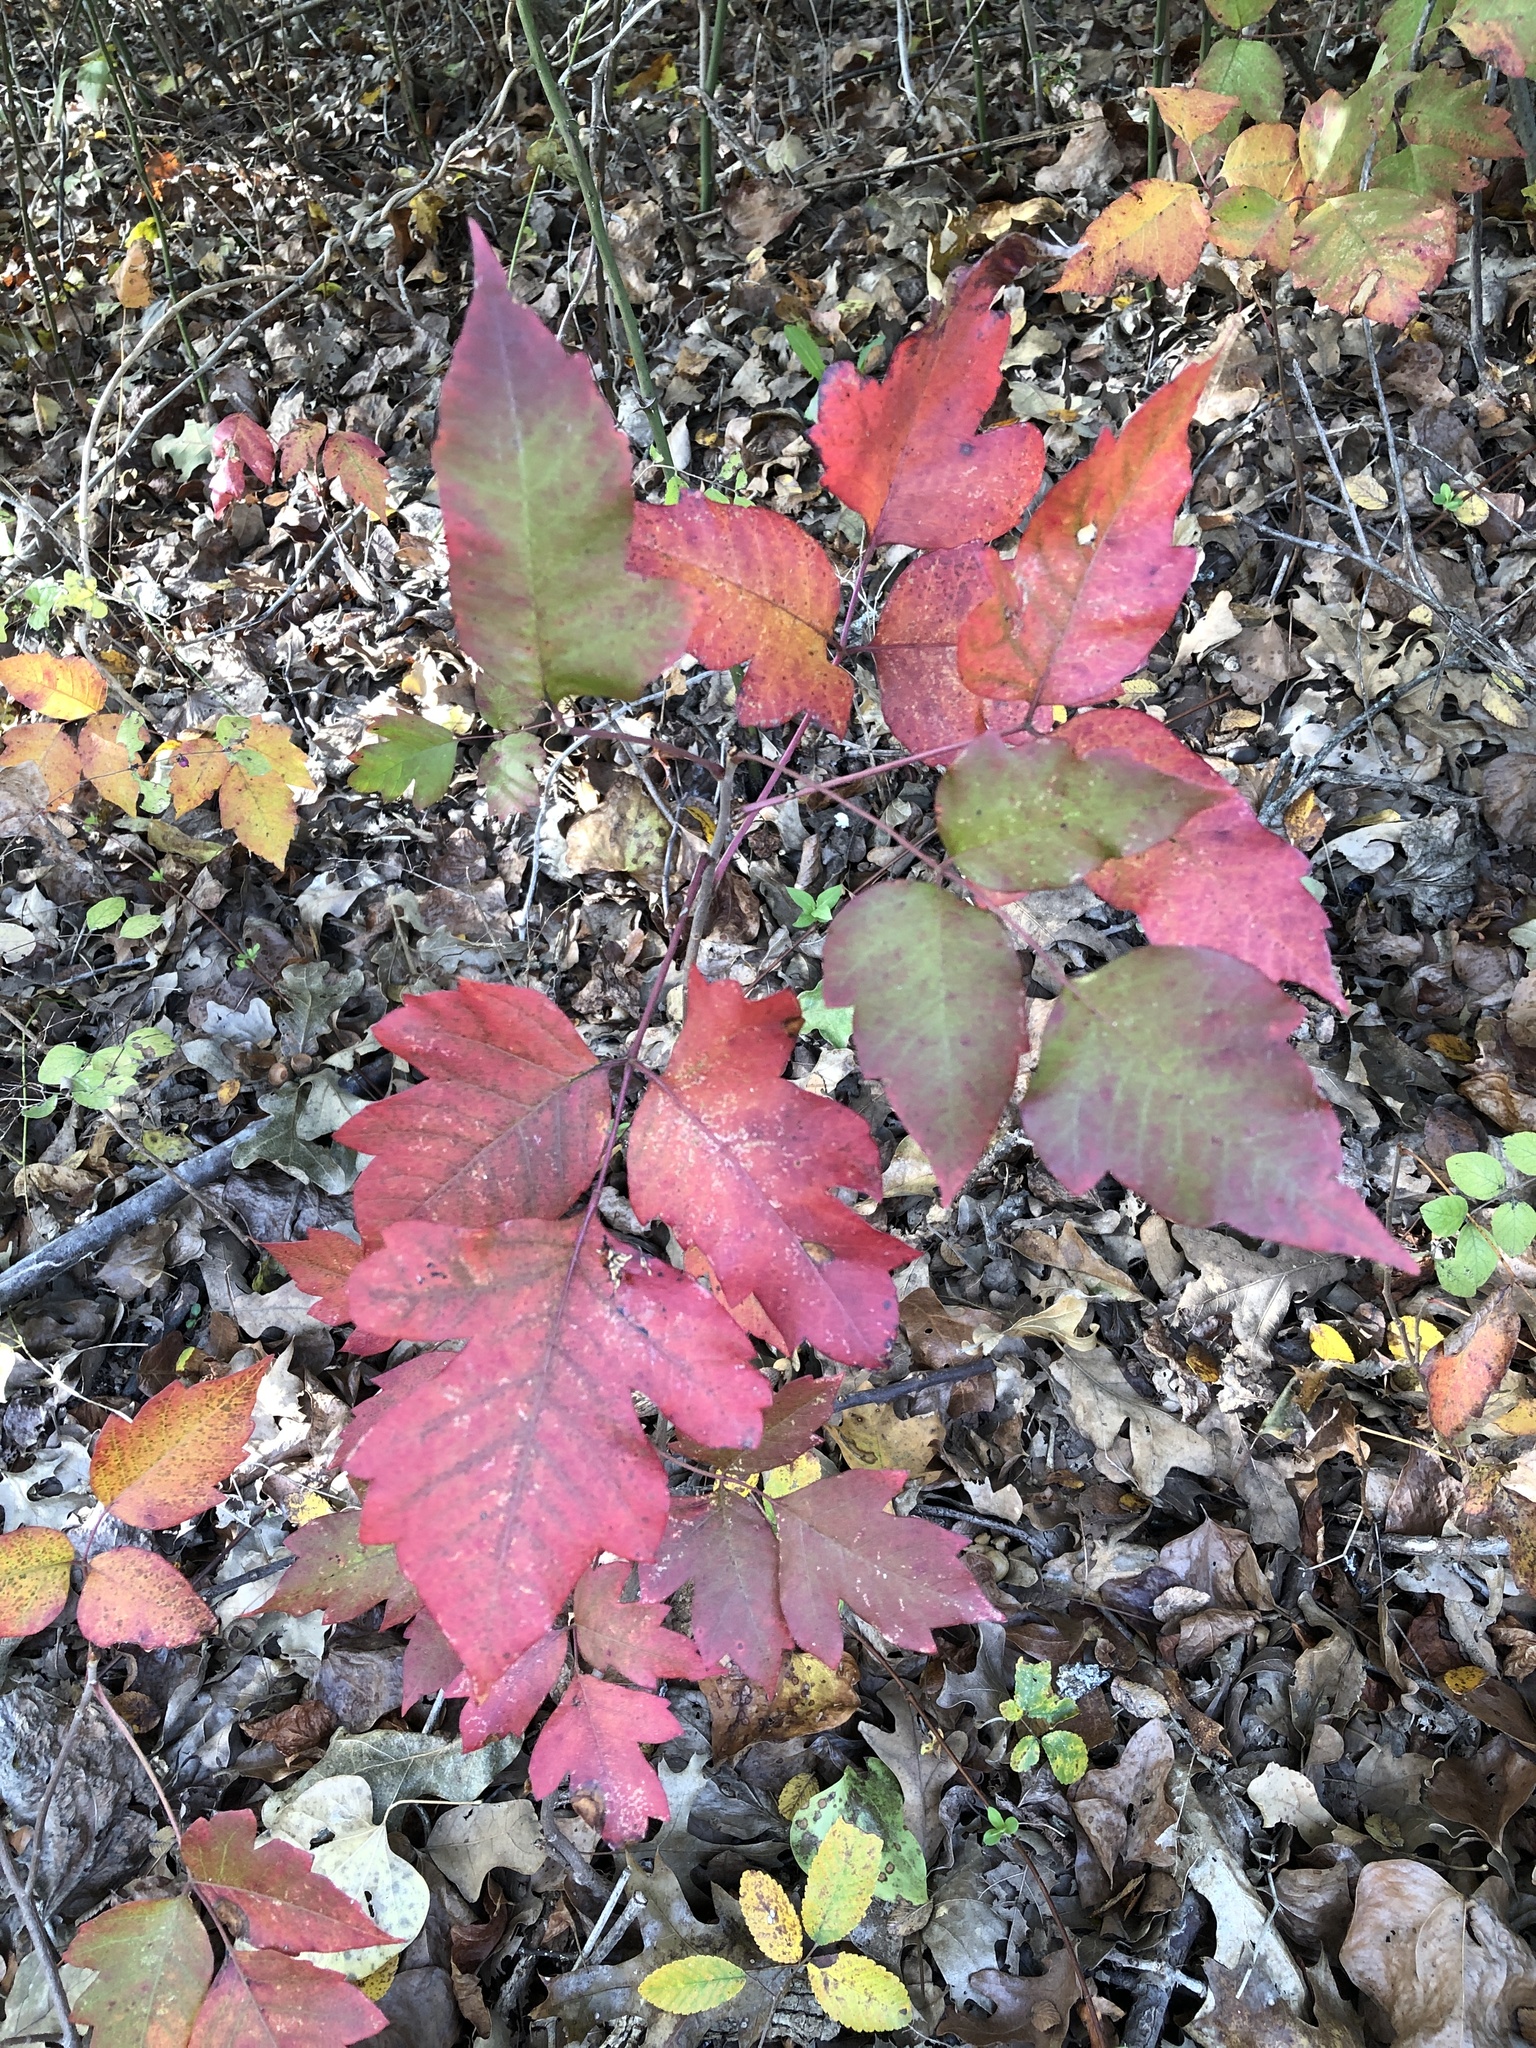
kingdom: Plantae
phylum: Tracheophyta
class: Magnoliopsida
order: Sapindales
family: Anacardiaceae
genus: Toxicodendron
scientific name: Toxicodendron radicans
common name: Poison ivy
